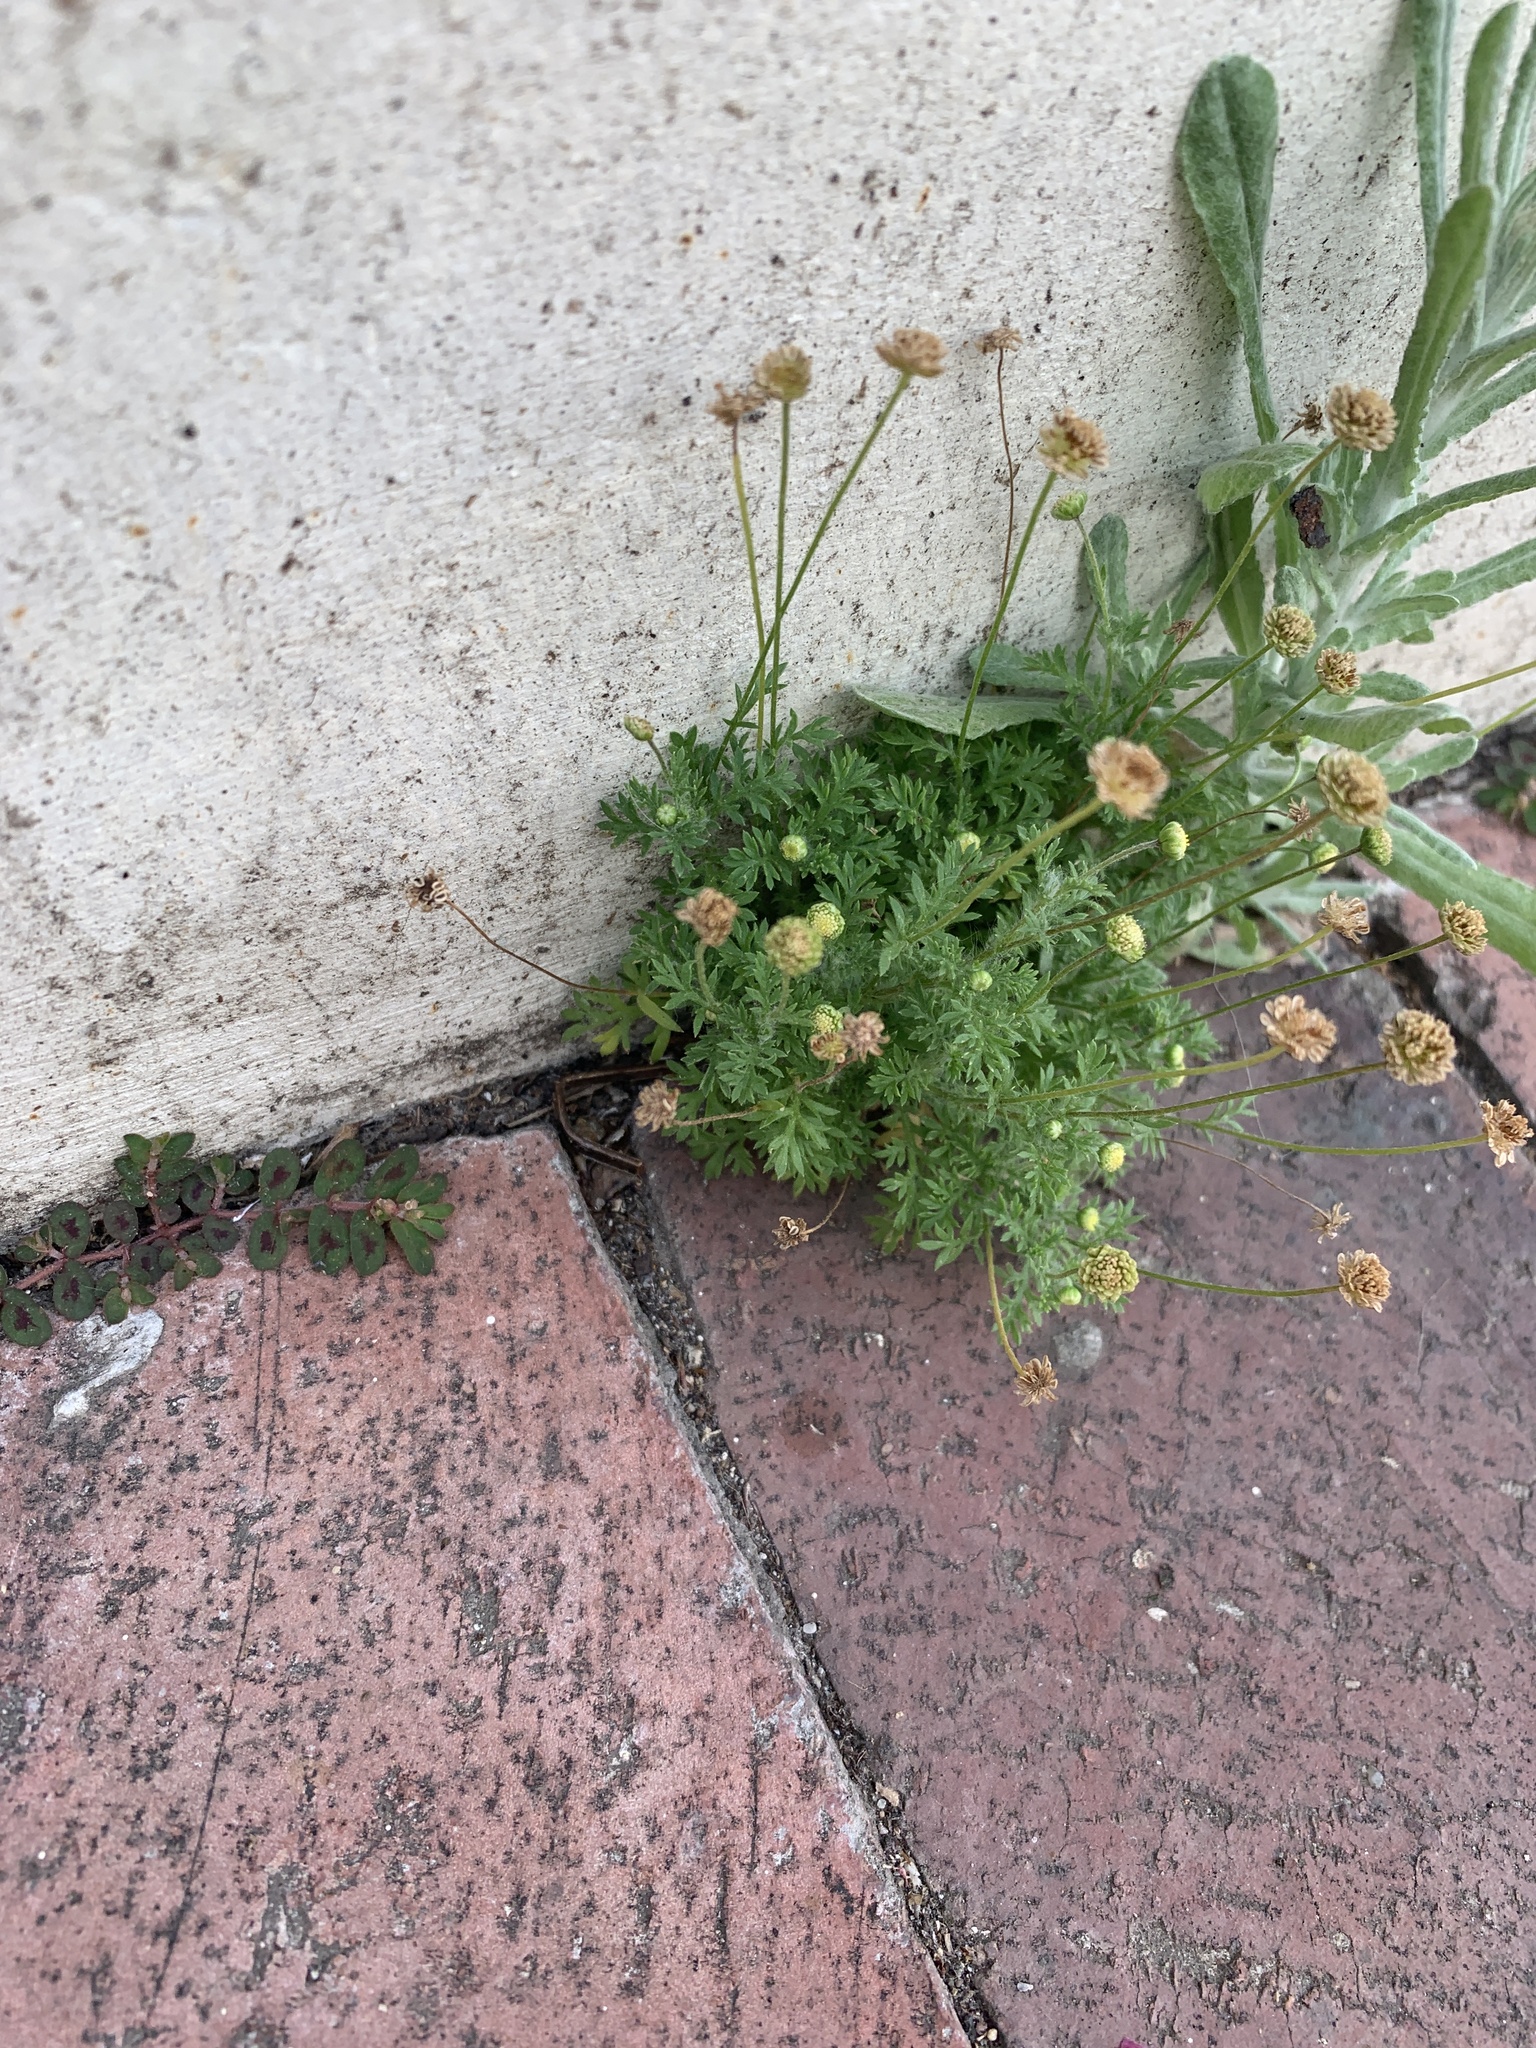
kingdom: Plantae
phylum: Tracheophyta
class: Magnoliopsida
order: Asterales
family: Asteraceae
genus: Cotula
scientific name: Cotula australis
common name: Australian waterbuttons
